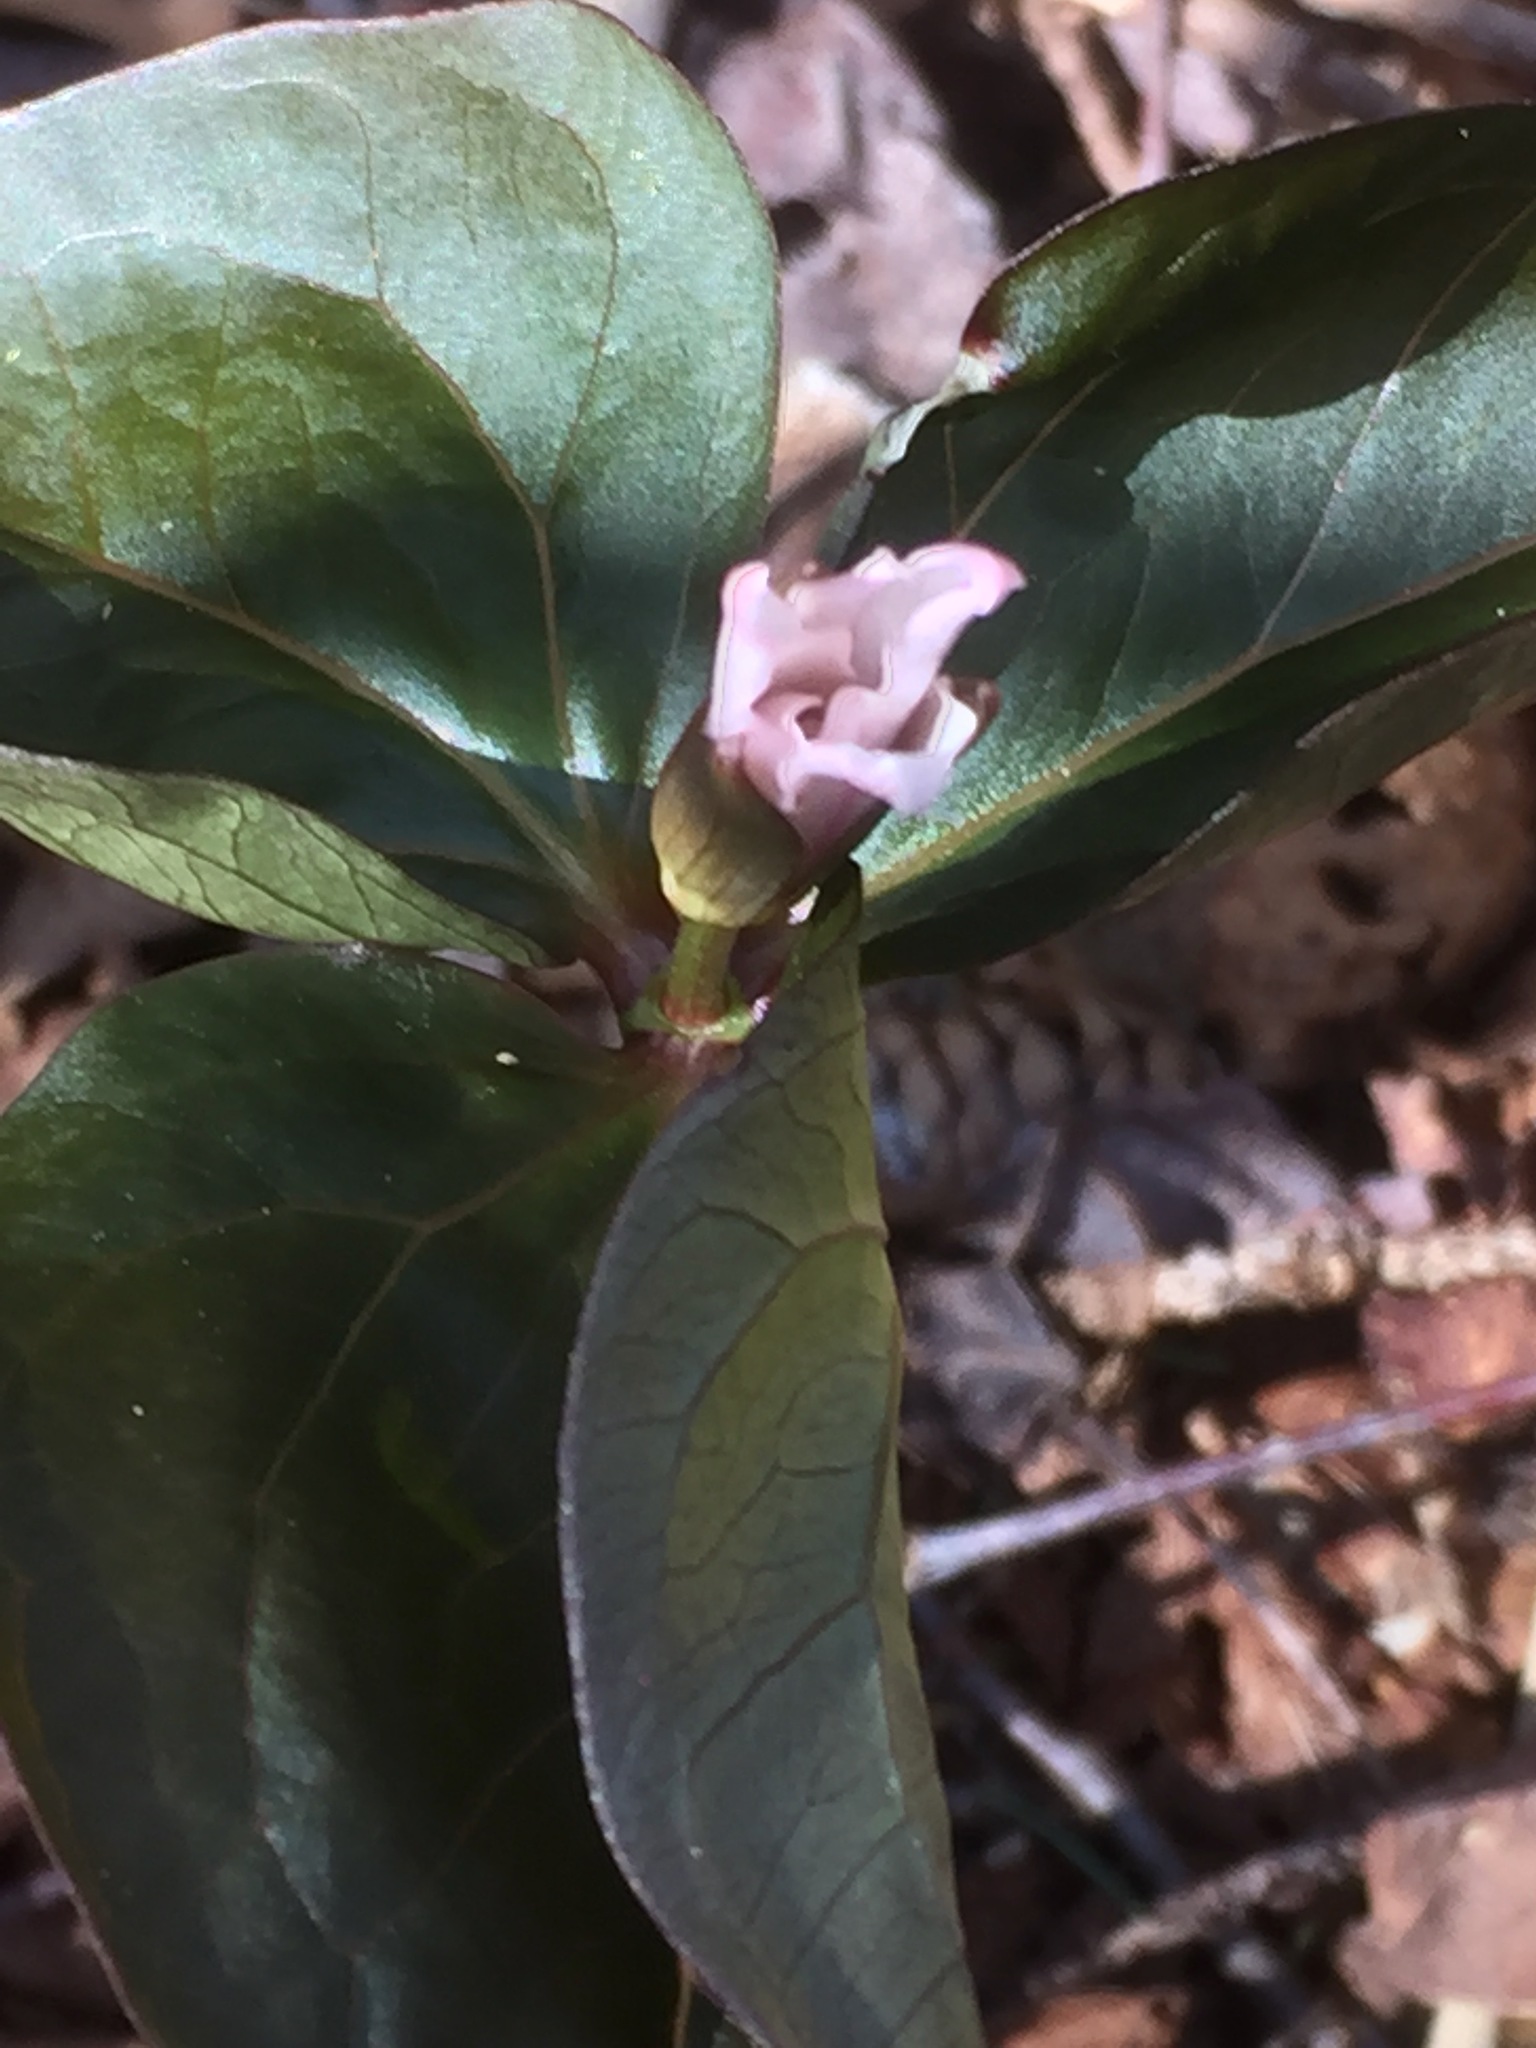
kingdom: Plantae
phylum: Tracheophyta
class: Liliopsida
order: Liliales
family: Melanthiaceae
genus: Trillium
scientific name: Trillium undulatum
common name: Paint trillium
